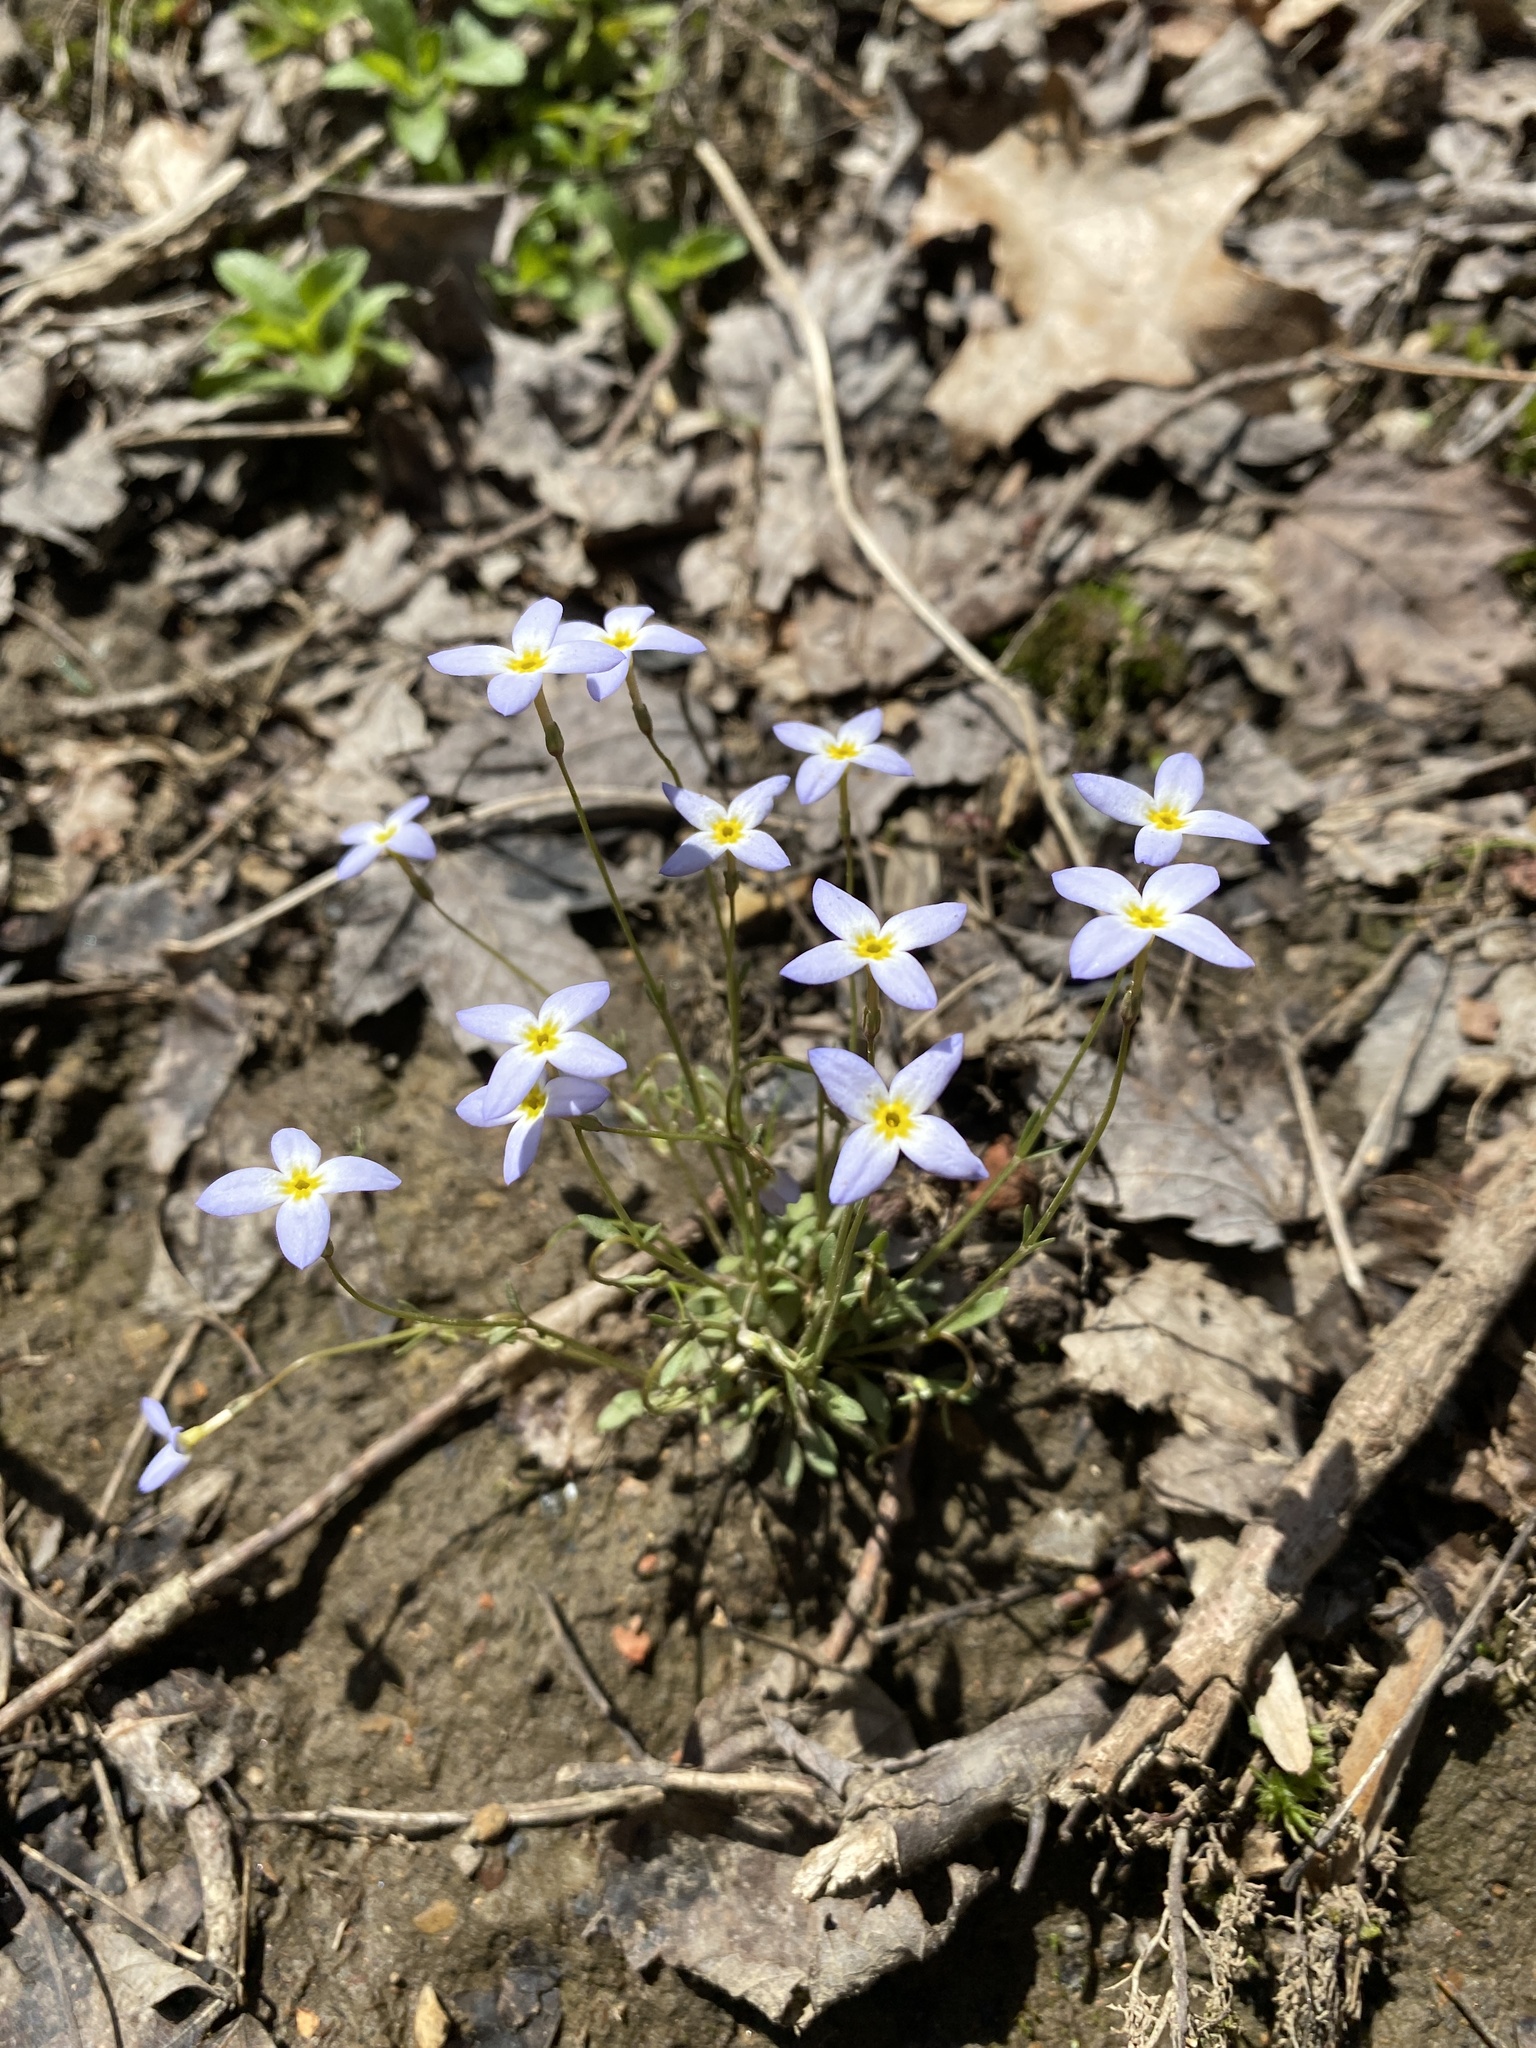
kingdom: Plantae
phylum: Tracheophyta
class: Magnoliopsida
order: Gentianales
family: Rubiaceae
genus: Houstonia
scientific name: Houstonia caerulea
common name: Bluets
